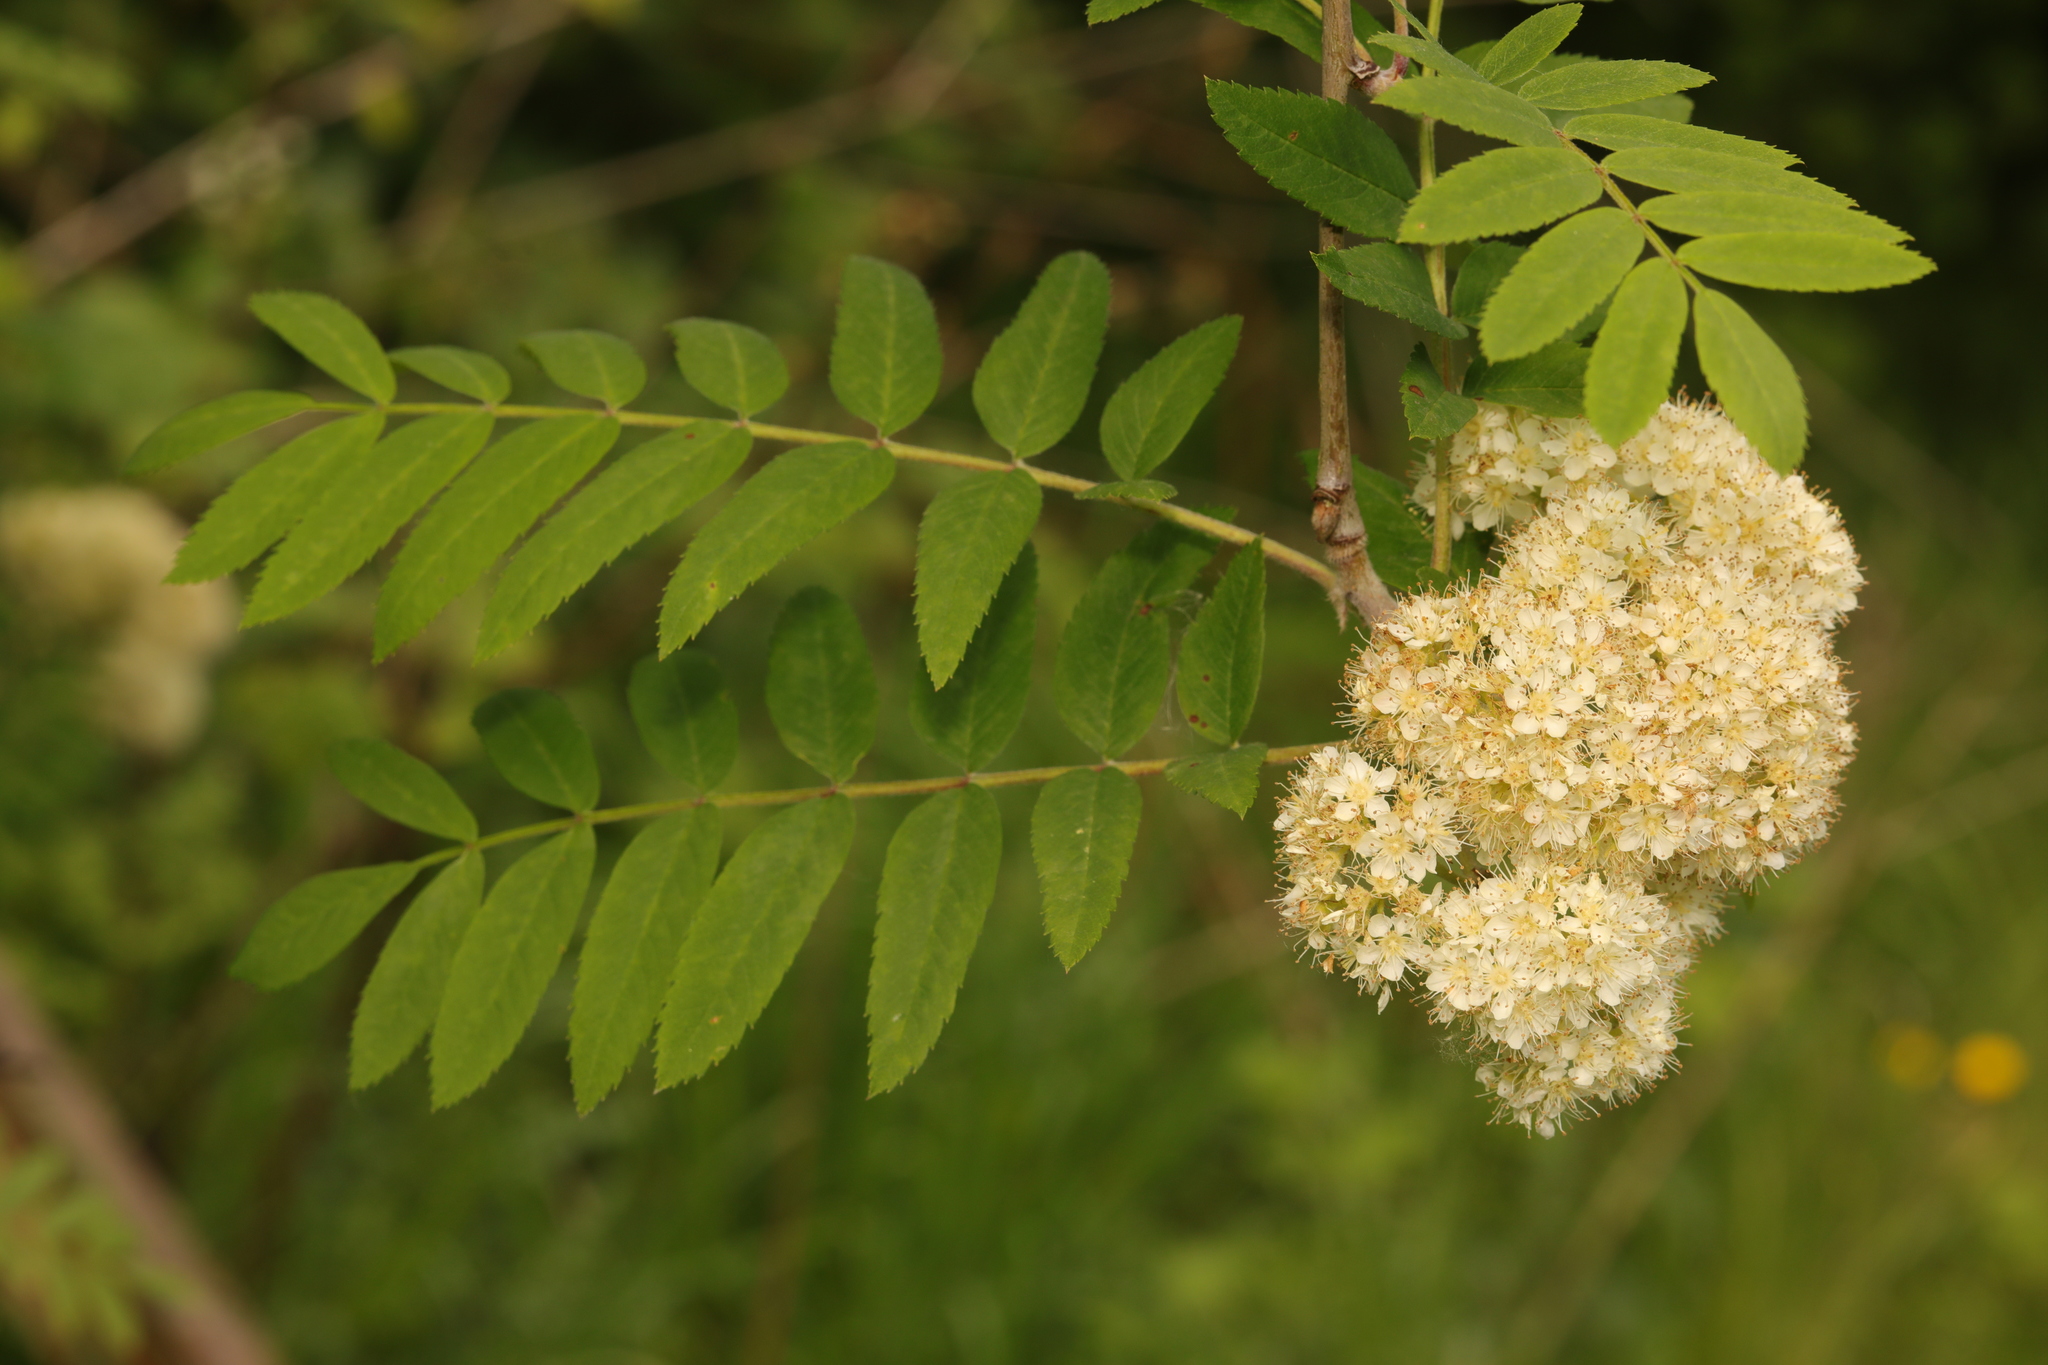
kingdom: Plantae
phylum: Tracheophyta
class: Magnoliopsida
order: Rosales
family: Rosaceae
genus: Sorbus
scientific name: Sorbus aucuparia
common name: Rowan
